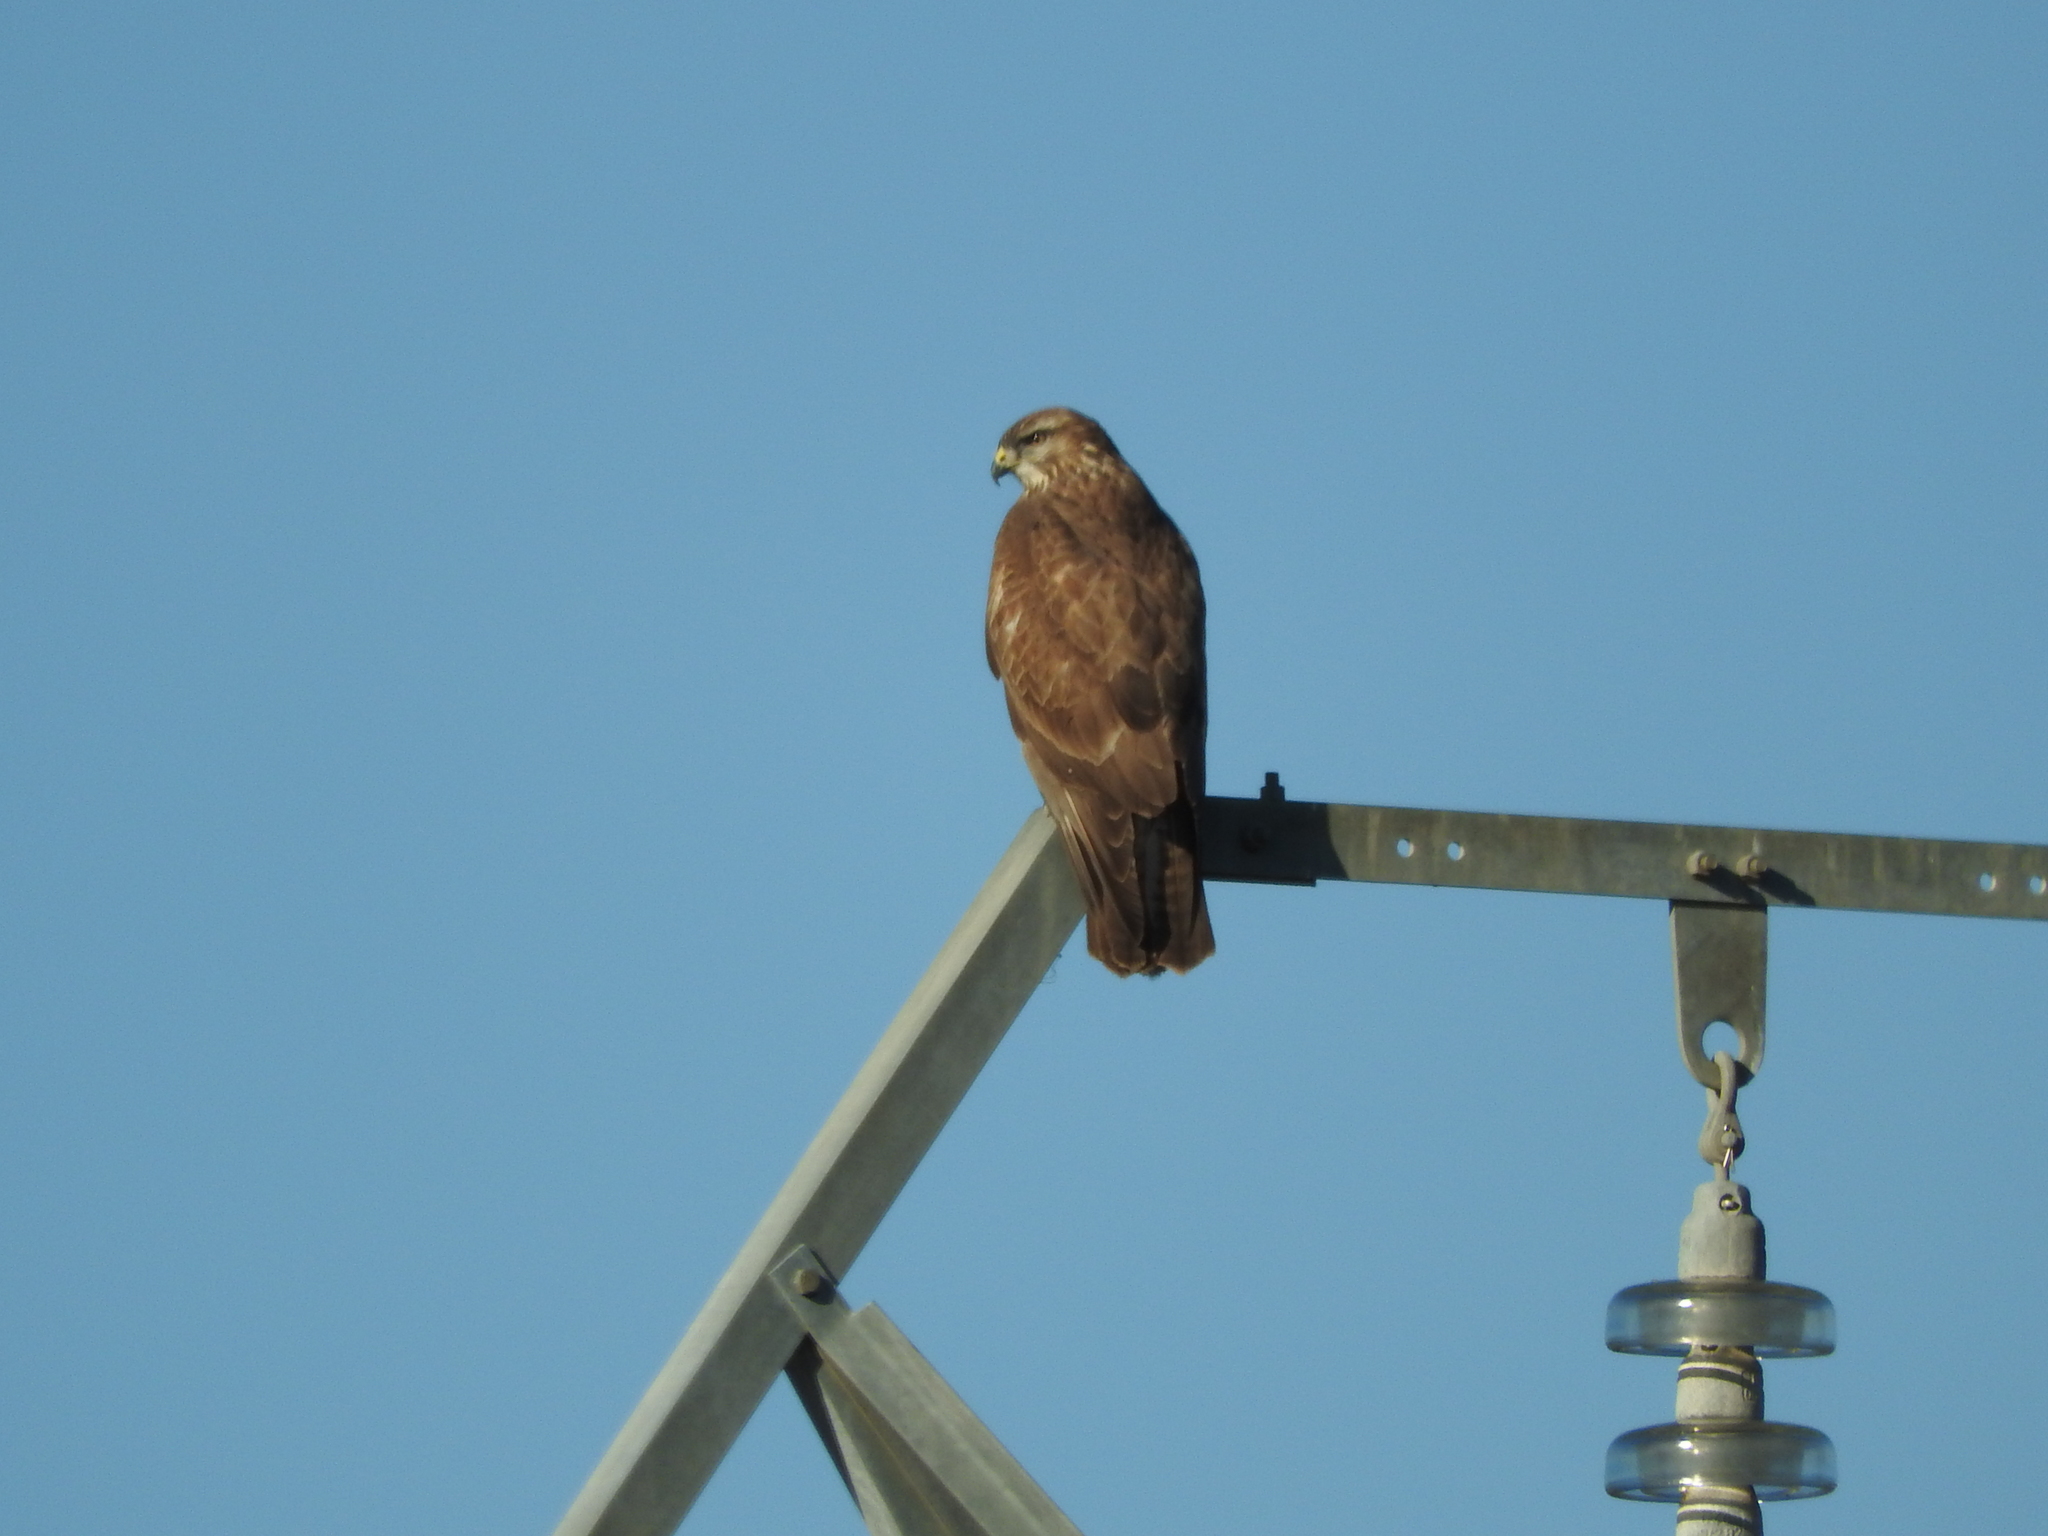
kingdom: Animalia
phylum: Chordata
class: Aves
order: Accipitriformes
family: Accipitridae
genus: Buteo
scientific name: Buteo buteo
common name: Common buzzard
